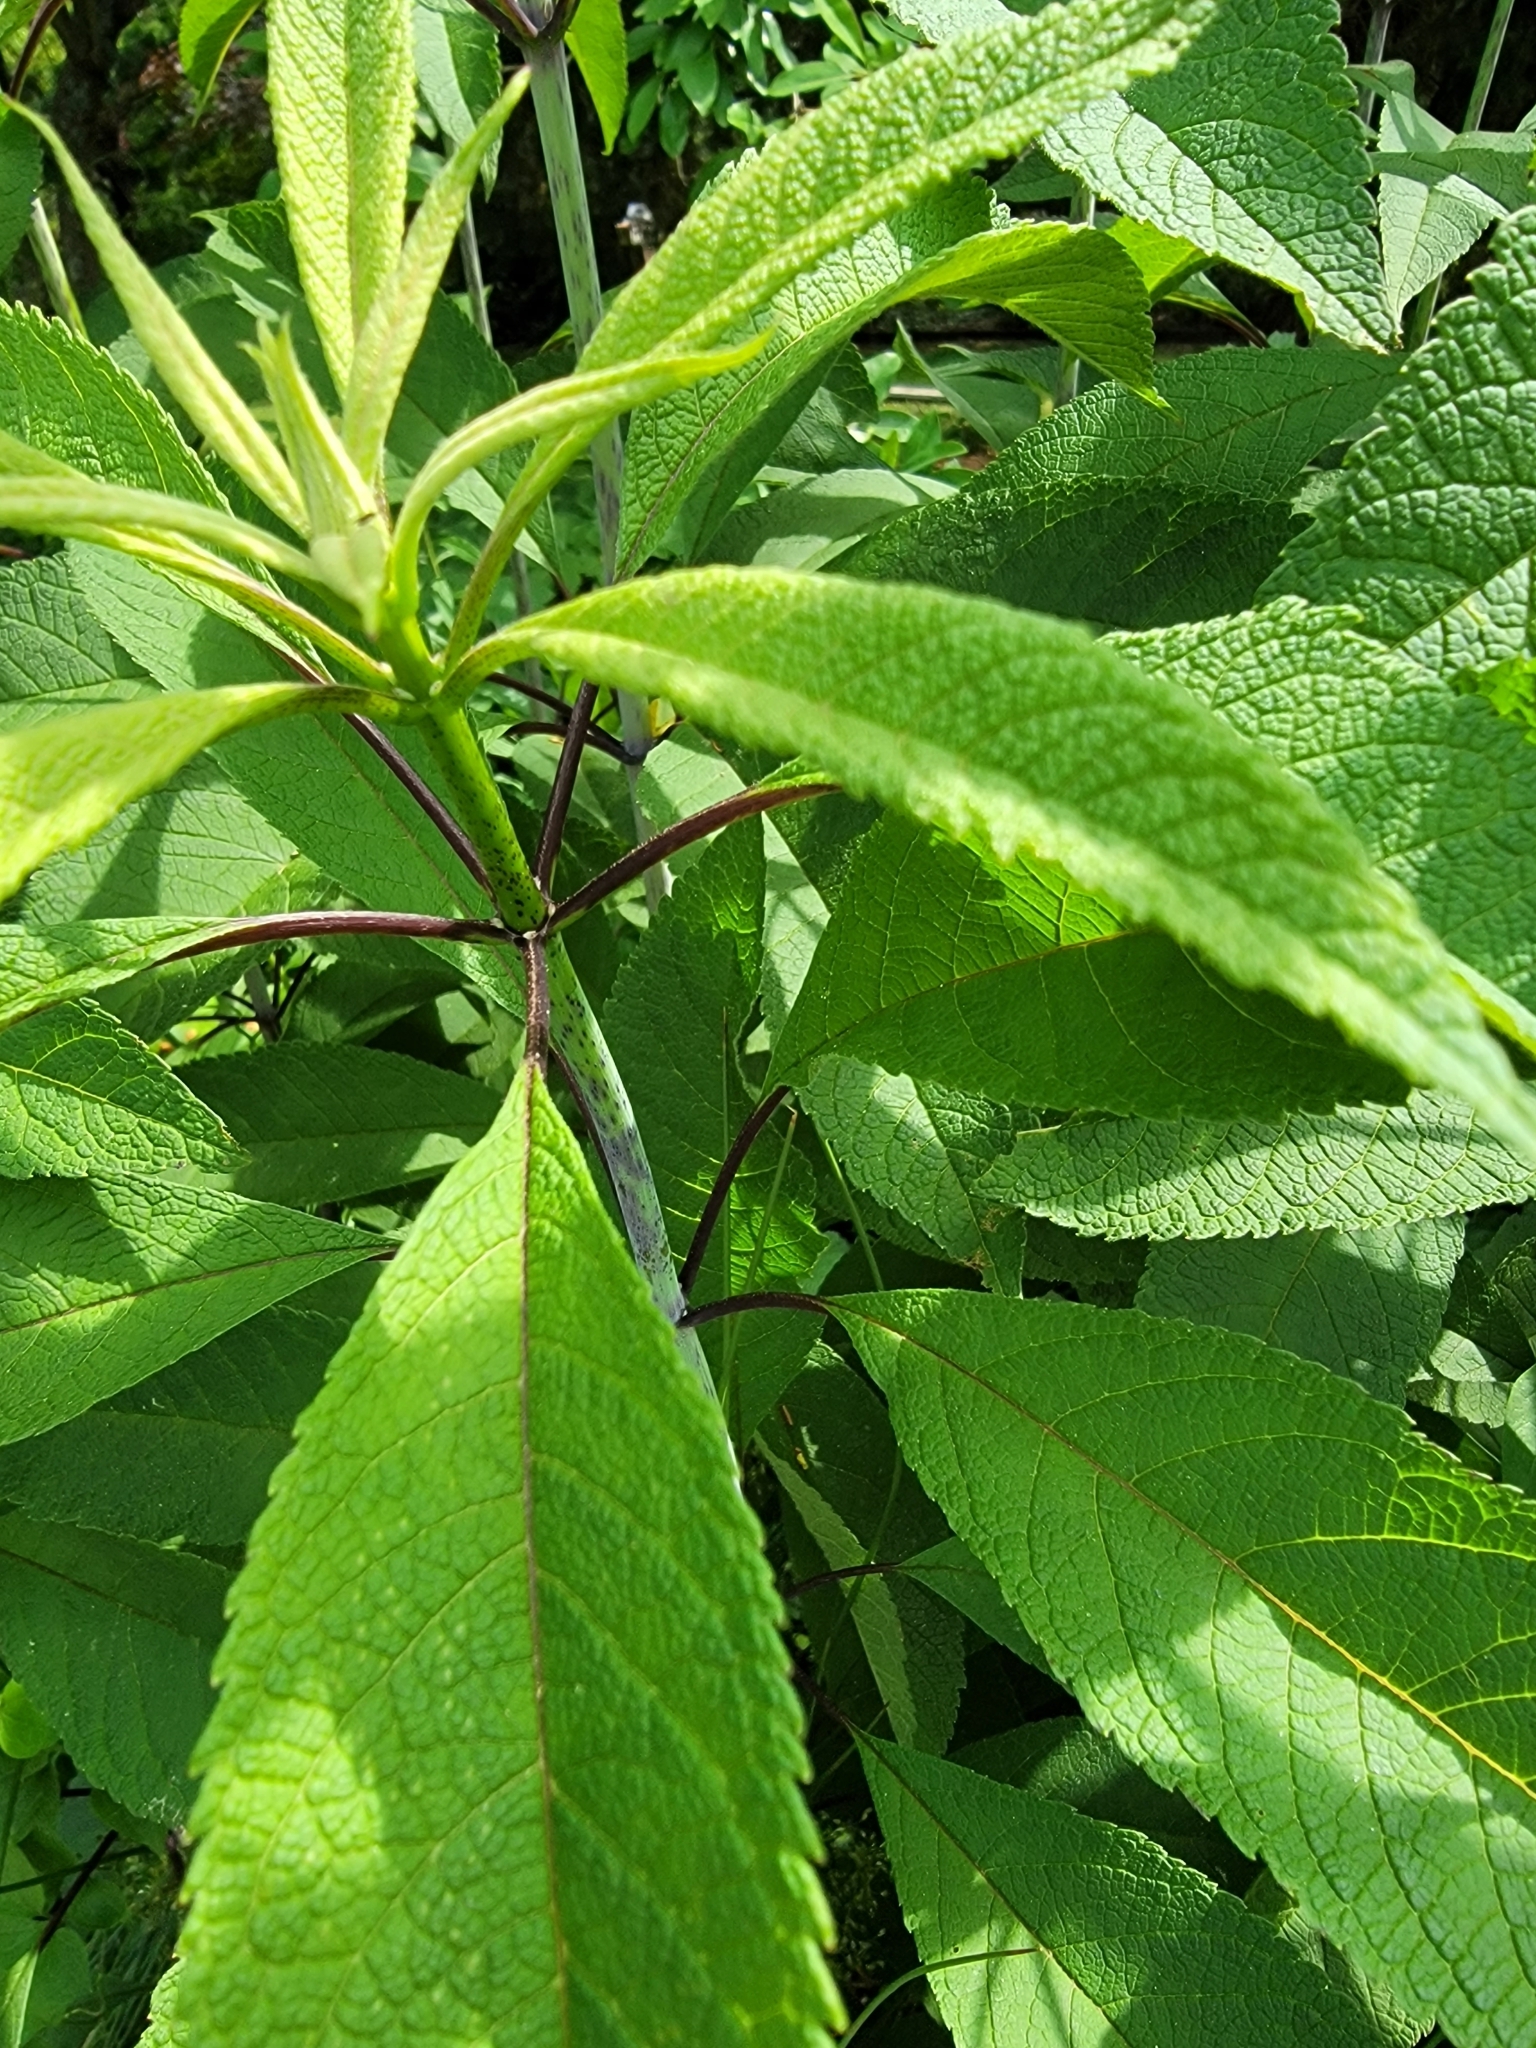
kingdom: Plantae
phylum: Tracheophyta
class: Magnoliopsida
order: Asterales
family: Asteraceae
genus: Eutrochium
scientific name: Eutrochium fistulosum
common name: Trumpetweed
